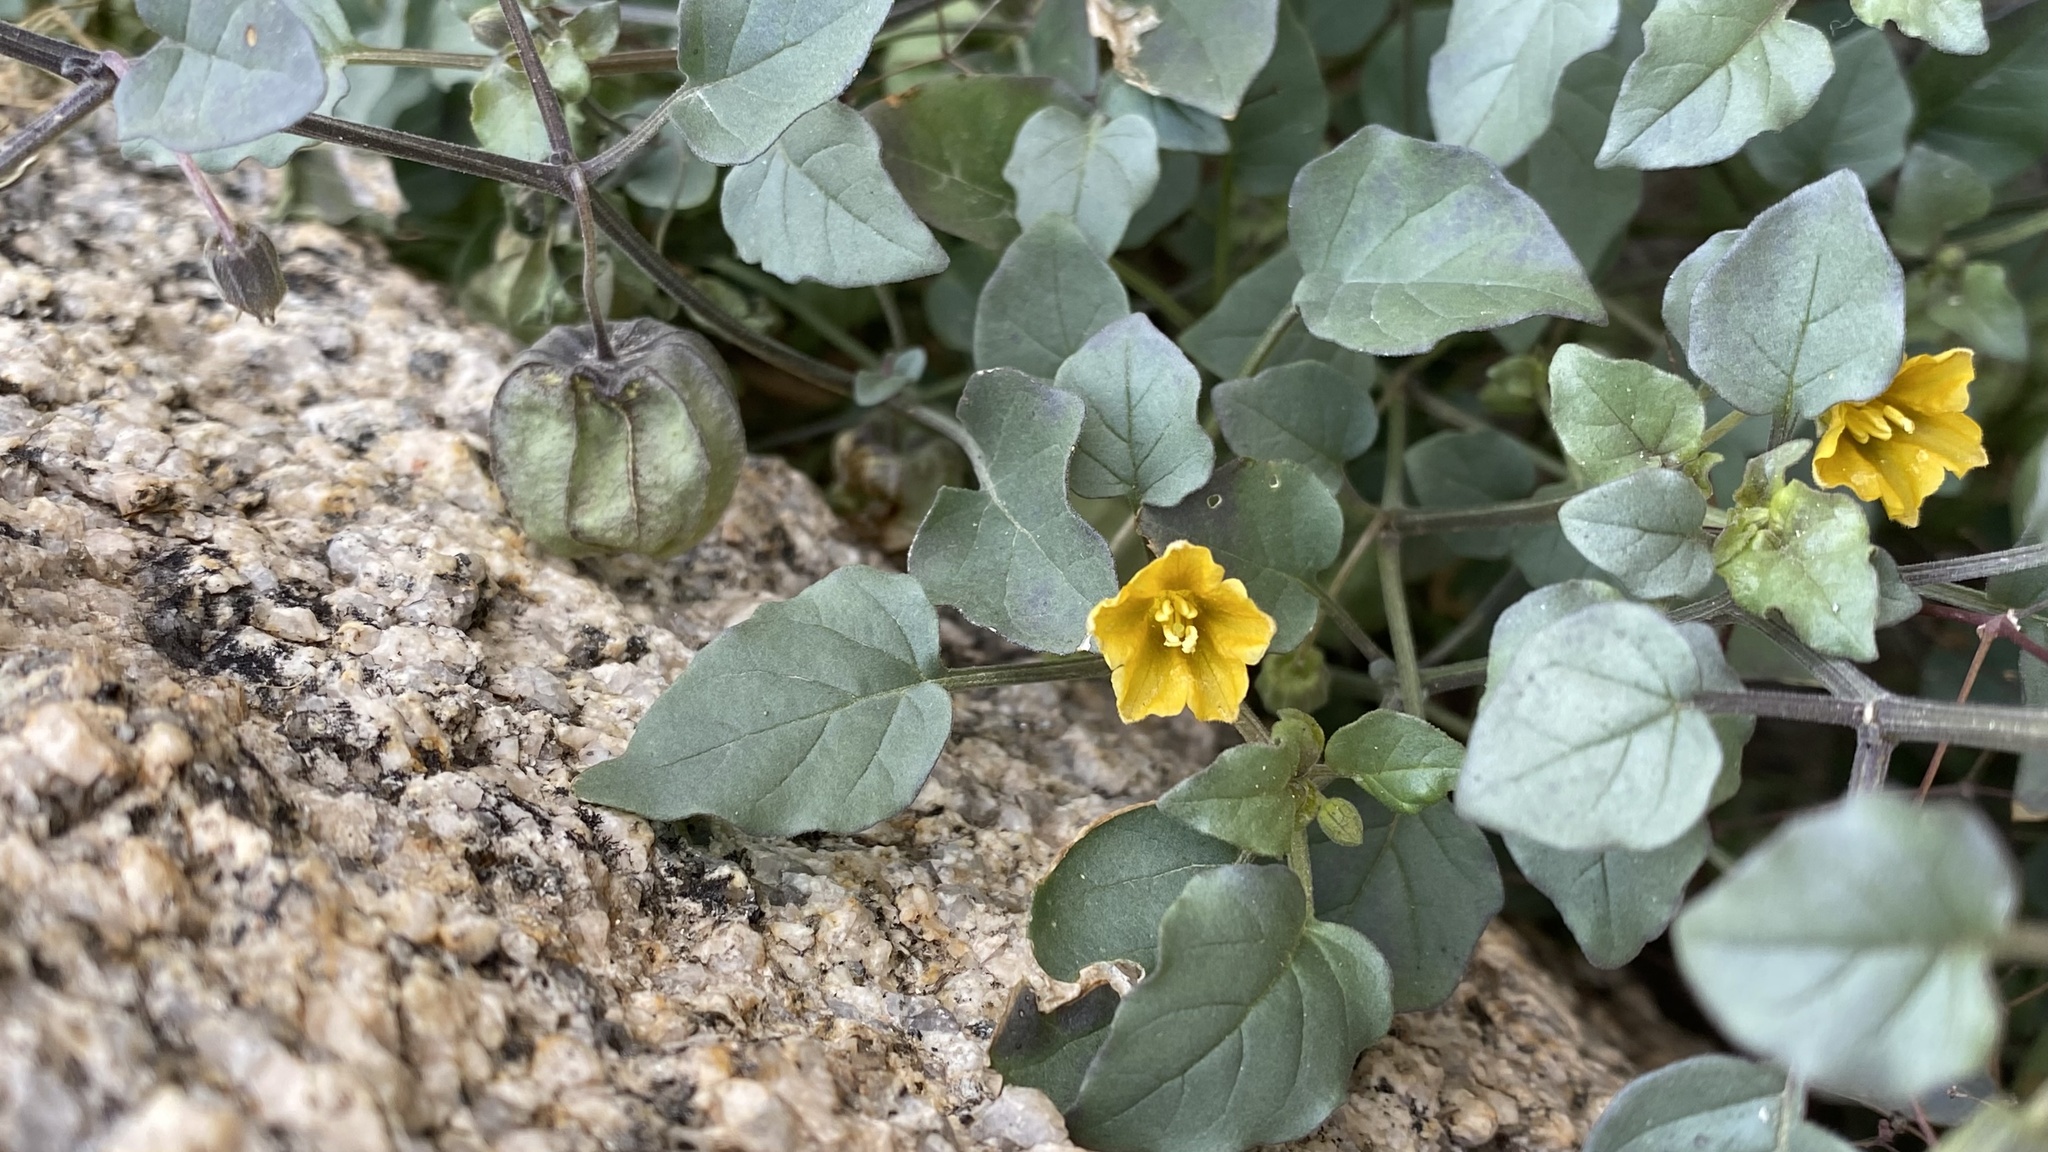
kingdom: Plantae
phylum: Tracheophyta
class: Magnoliopsida
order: Solanales
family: Solanaceae
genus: Physalis
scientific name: Physalis crassifolia
